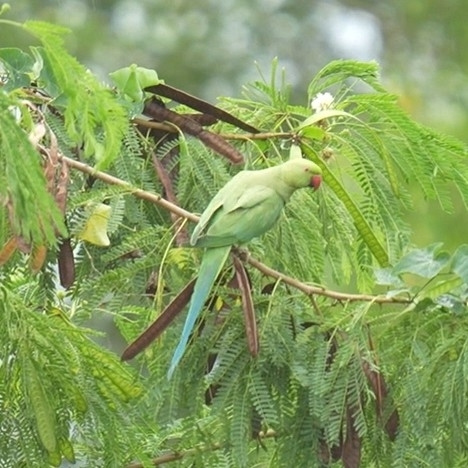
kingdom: Animalia
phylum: Chordata
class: Aves
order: Psittaciformes
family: Psittacidae
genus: Psittacula
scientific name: Psittacula krameri
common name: Rose-ringed parakeet
